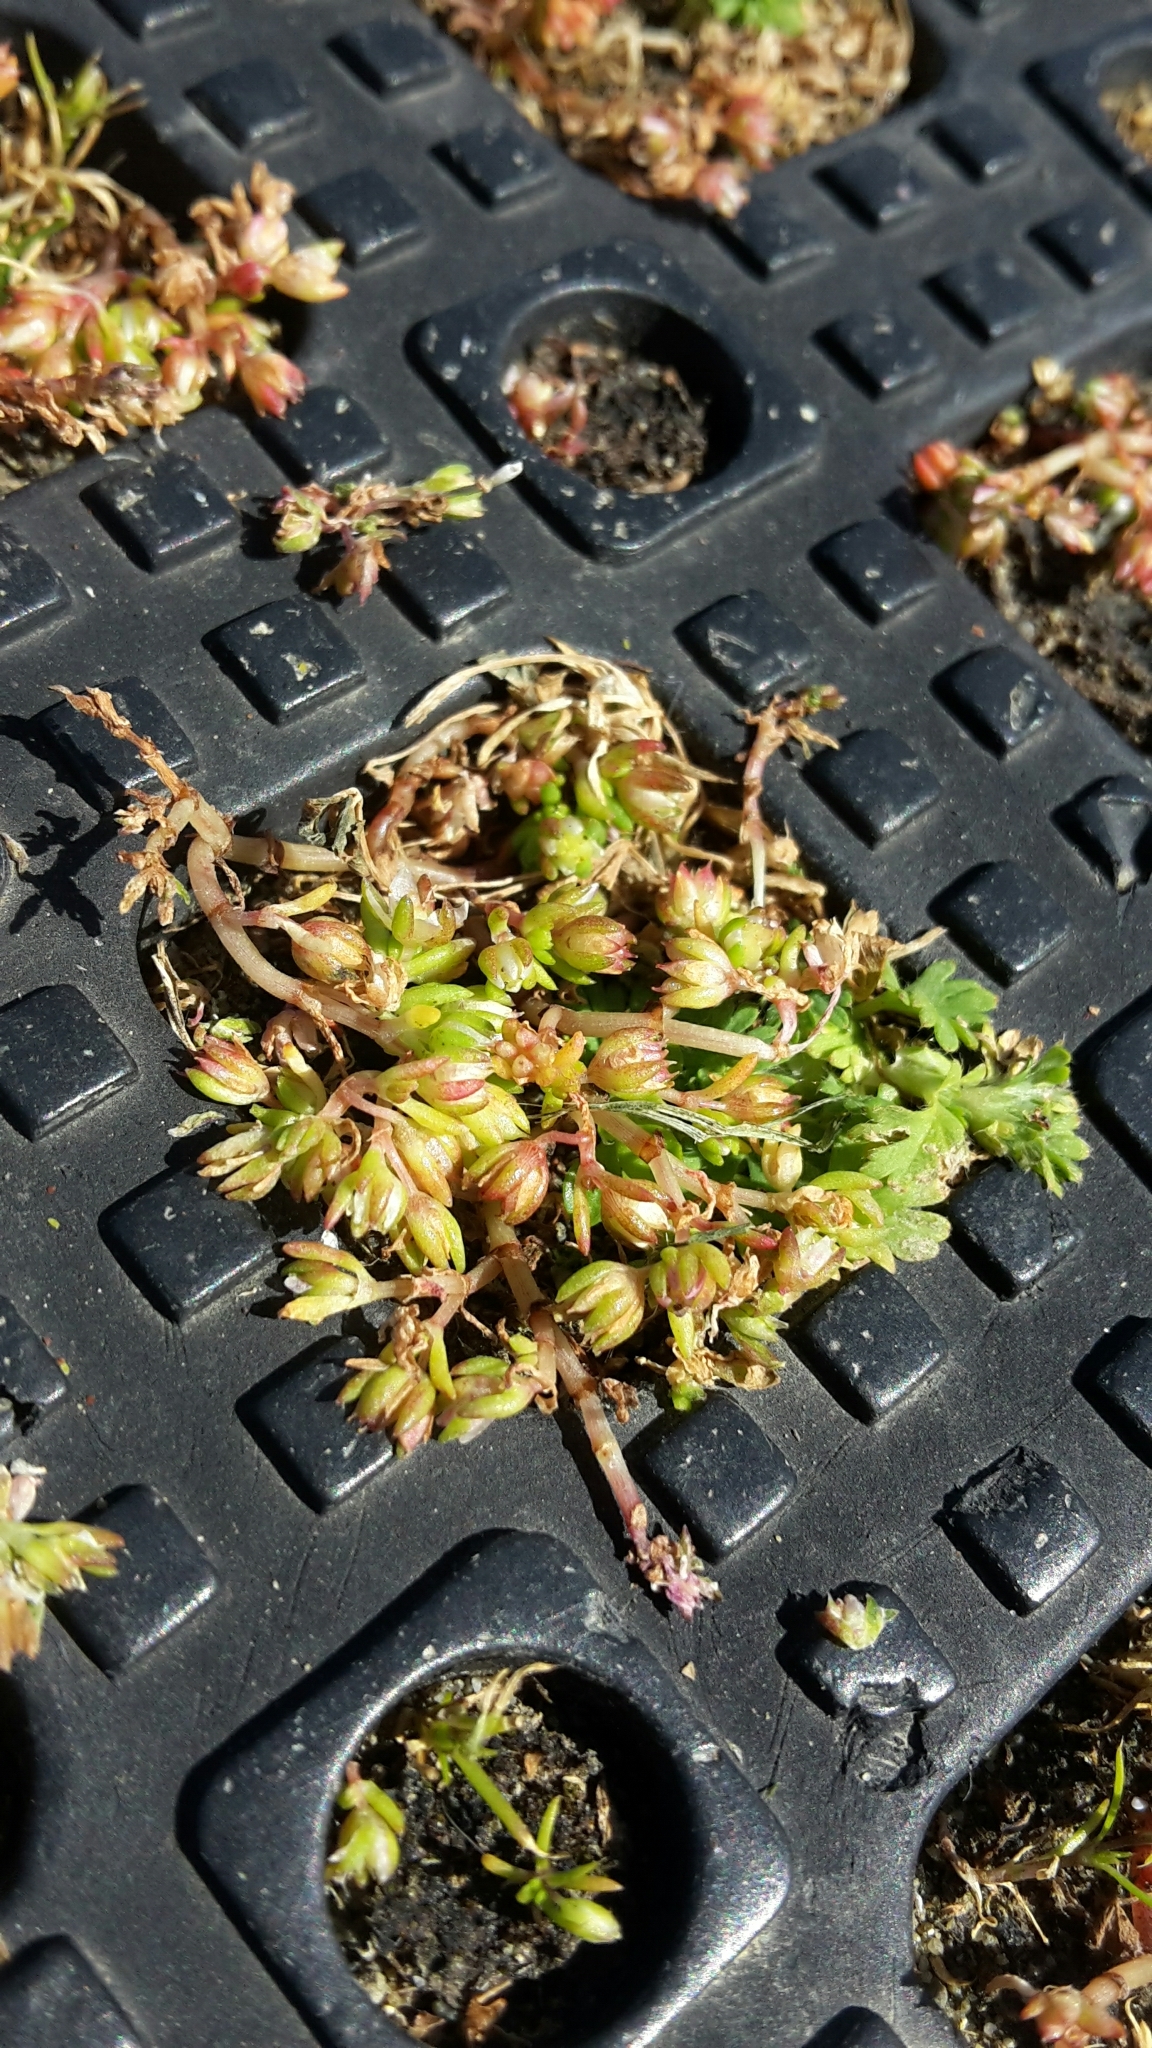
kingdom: Plantae
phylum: Tracheophyta
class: Magnoliopsida
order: Caryophyllales
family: Caryophyllaceae
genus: Polycarpon
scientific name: Polycarpon tetraphyllum
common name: Four-leaved all-seed
